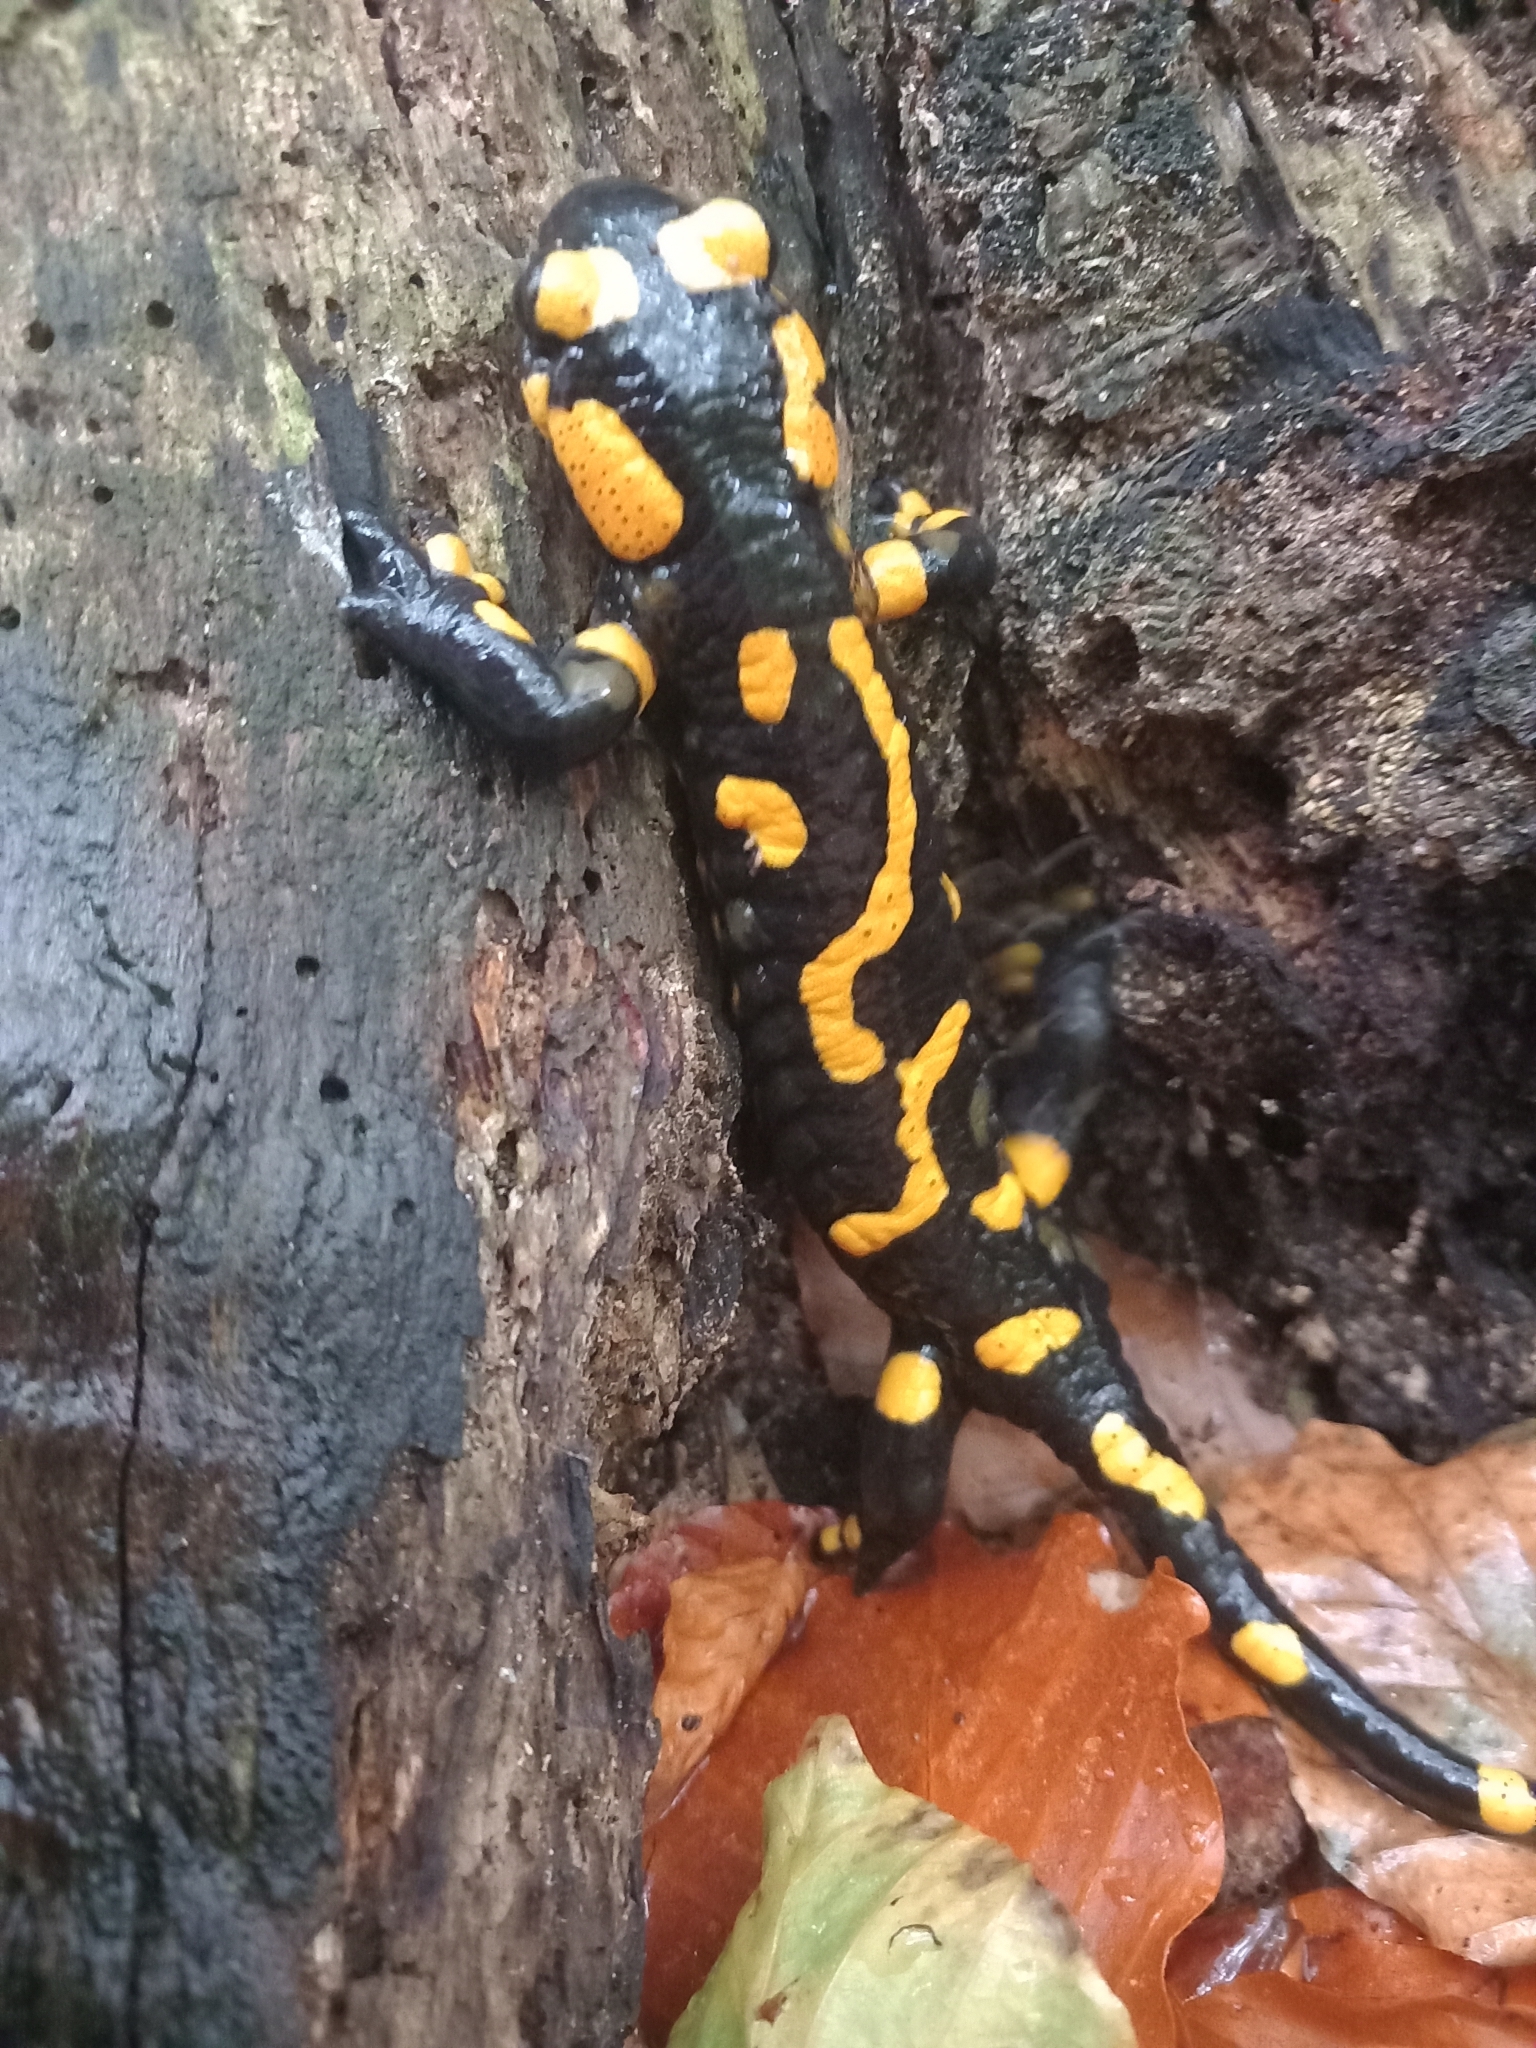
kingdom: Animalia
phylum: Chordata
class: Amphibia
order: Caudata
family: Salamandridae
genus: Salamandra
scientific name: Salamandra salamandra
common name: Fire salamander
